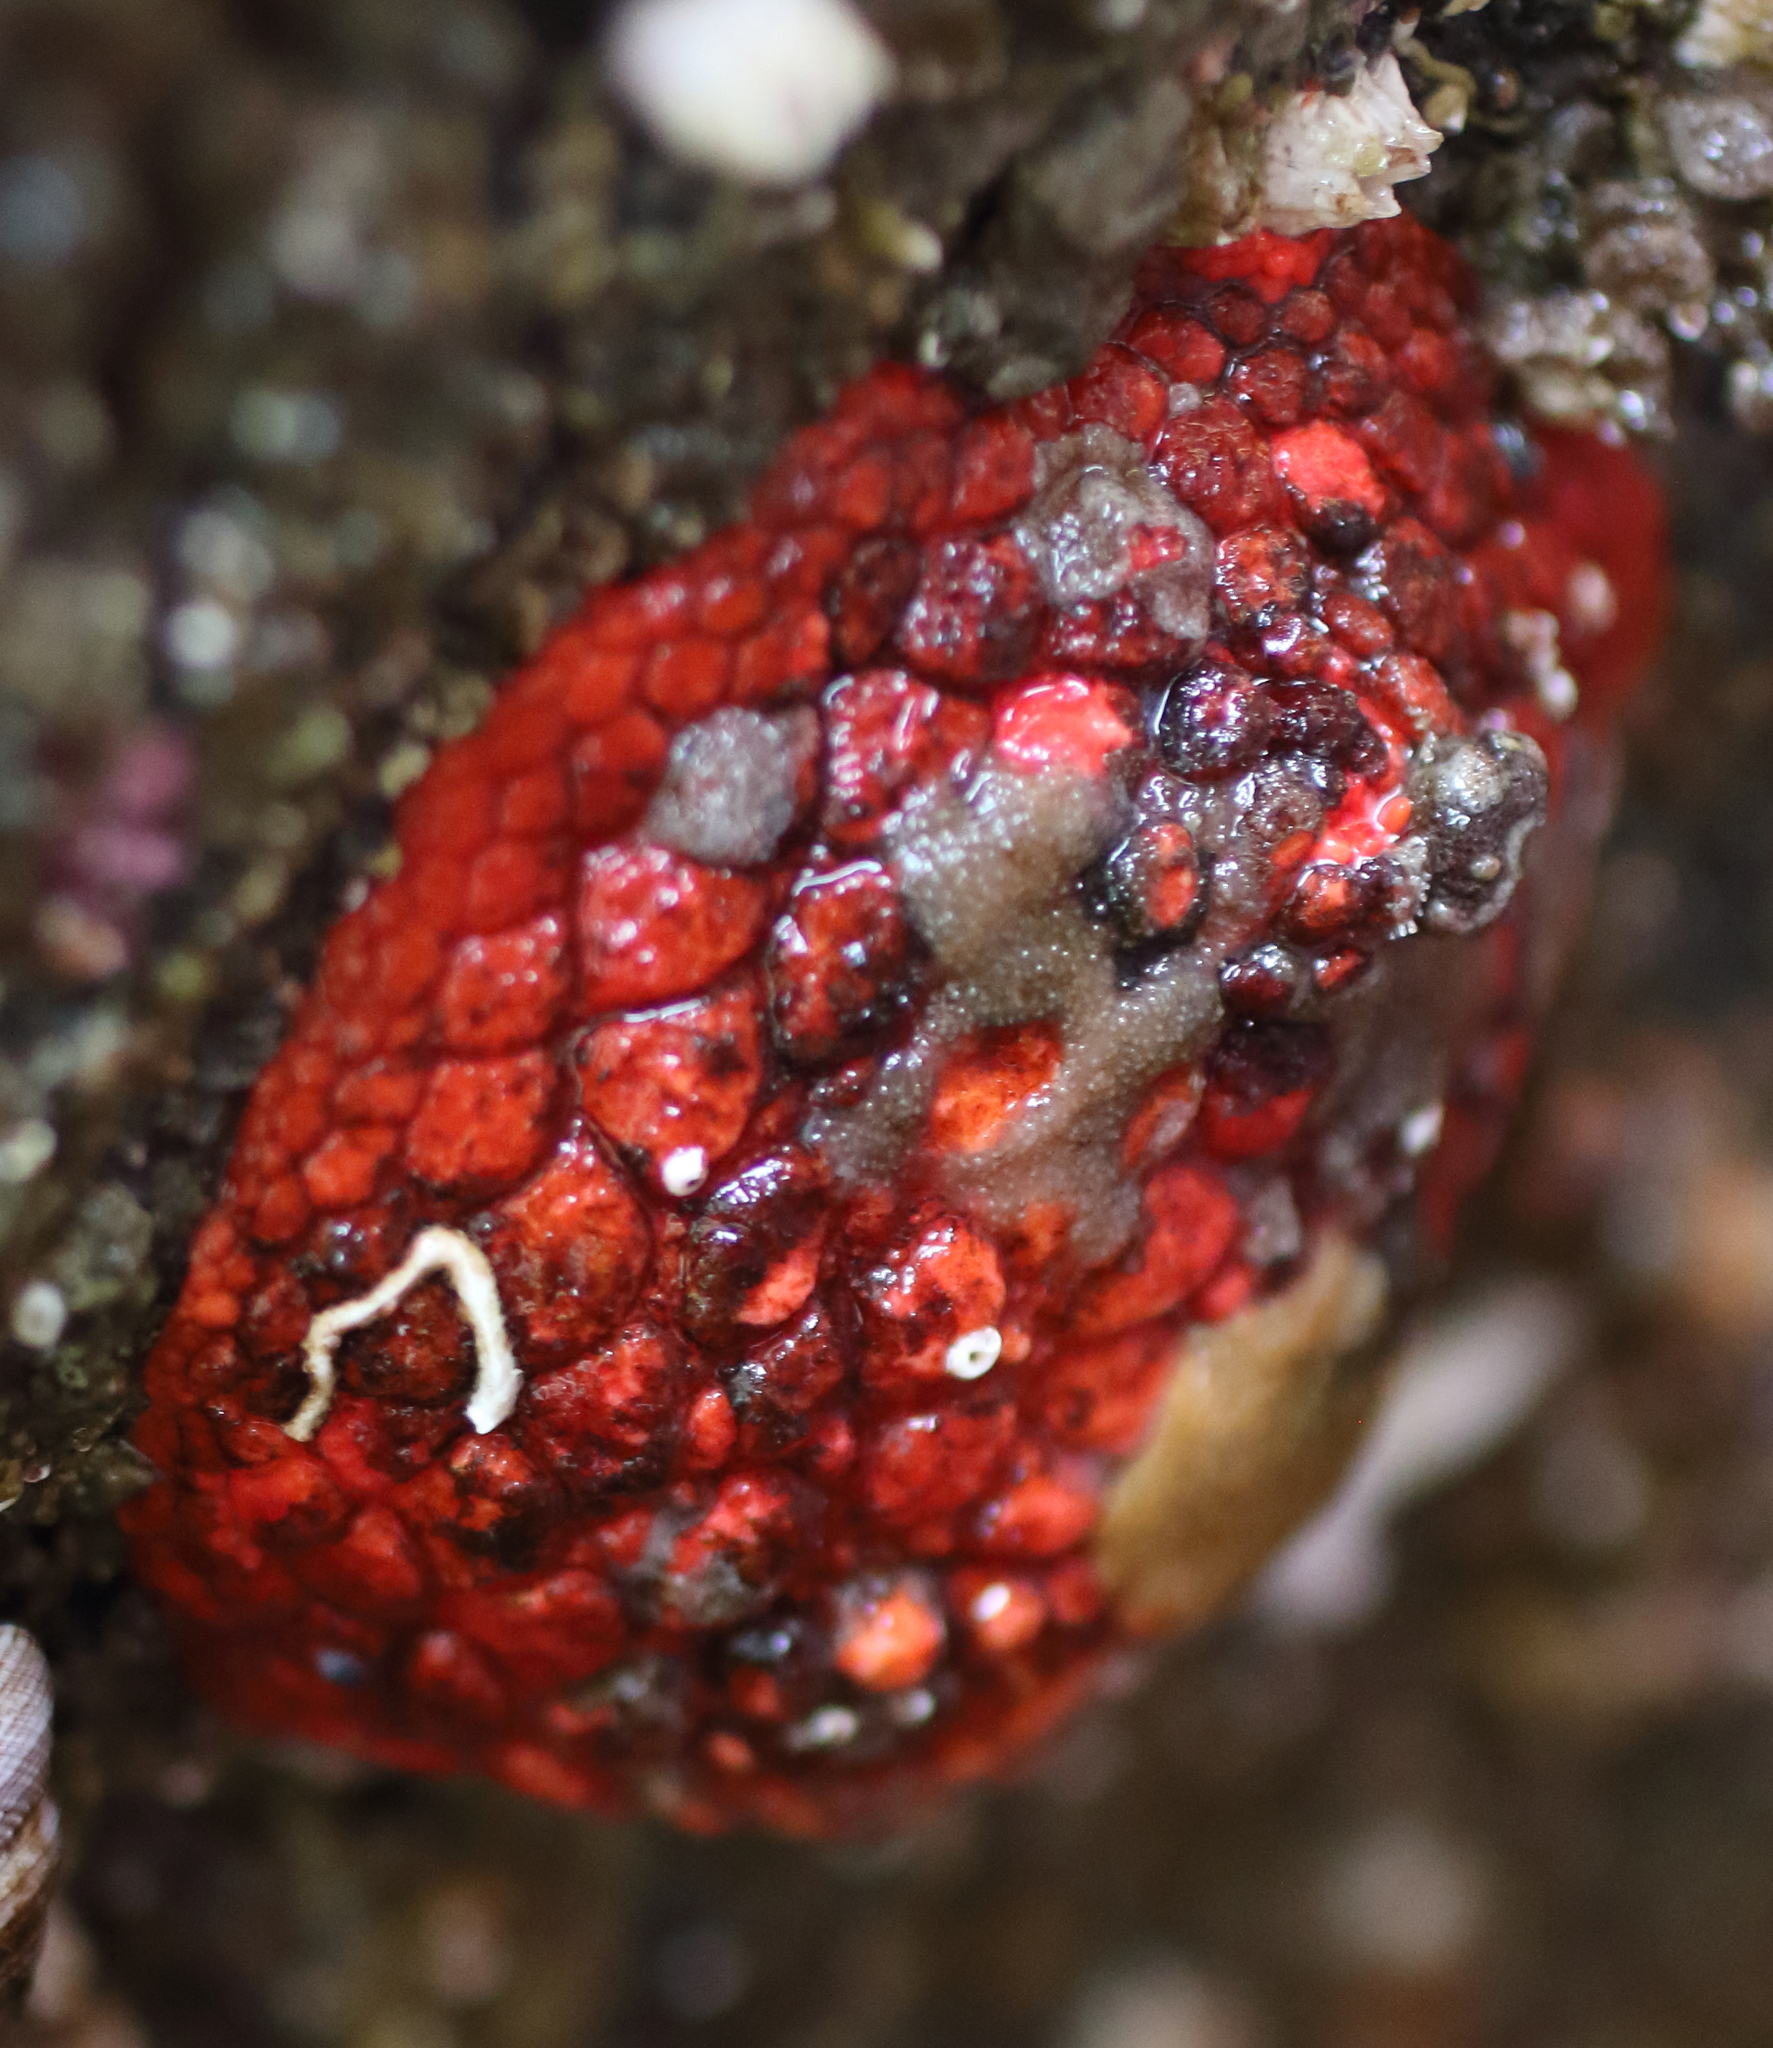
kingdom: Animalia
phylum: Echinodermata
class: Holothuroidea
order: Dendrochirotida
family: Psolidae
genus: Psolus
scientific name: Psolus chitonoides
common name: Creeping pedal sea cucumber
